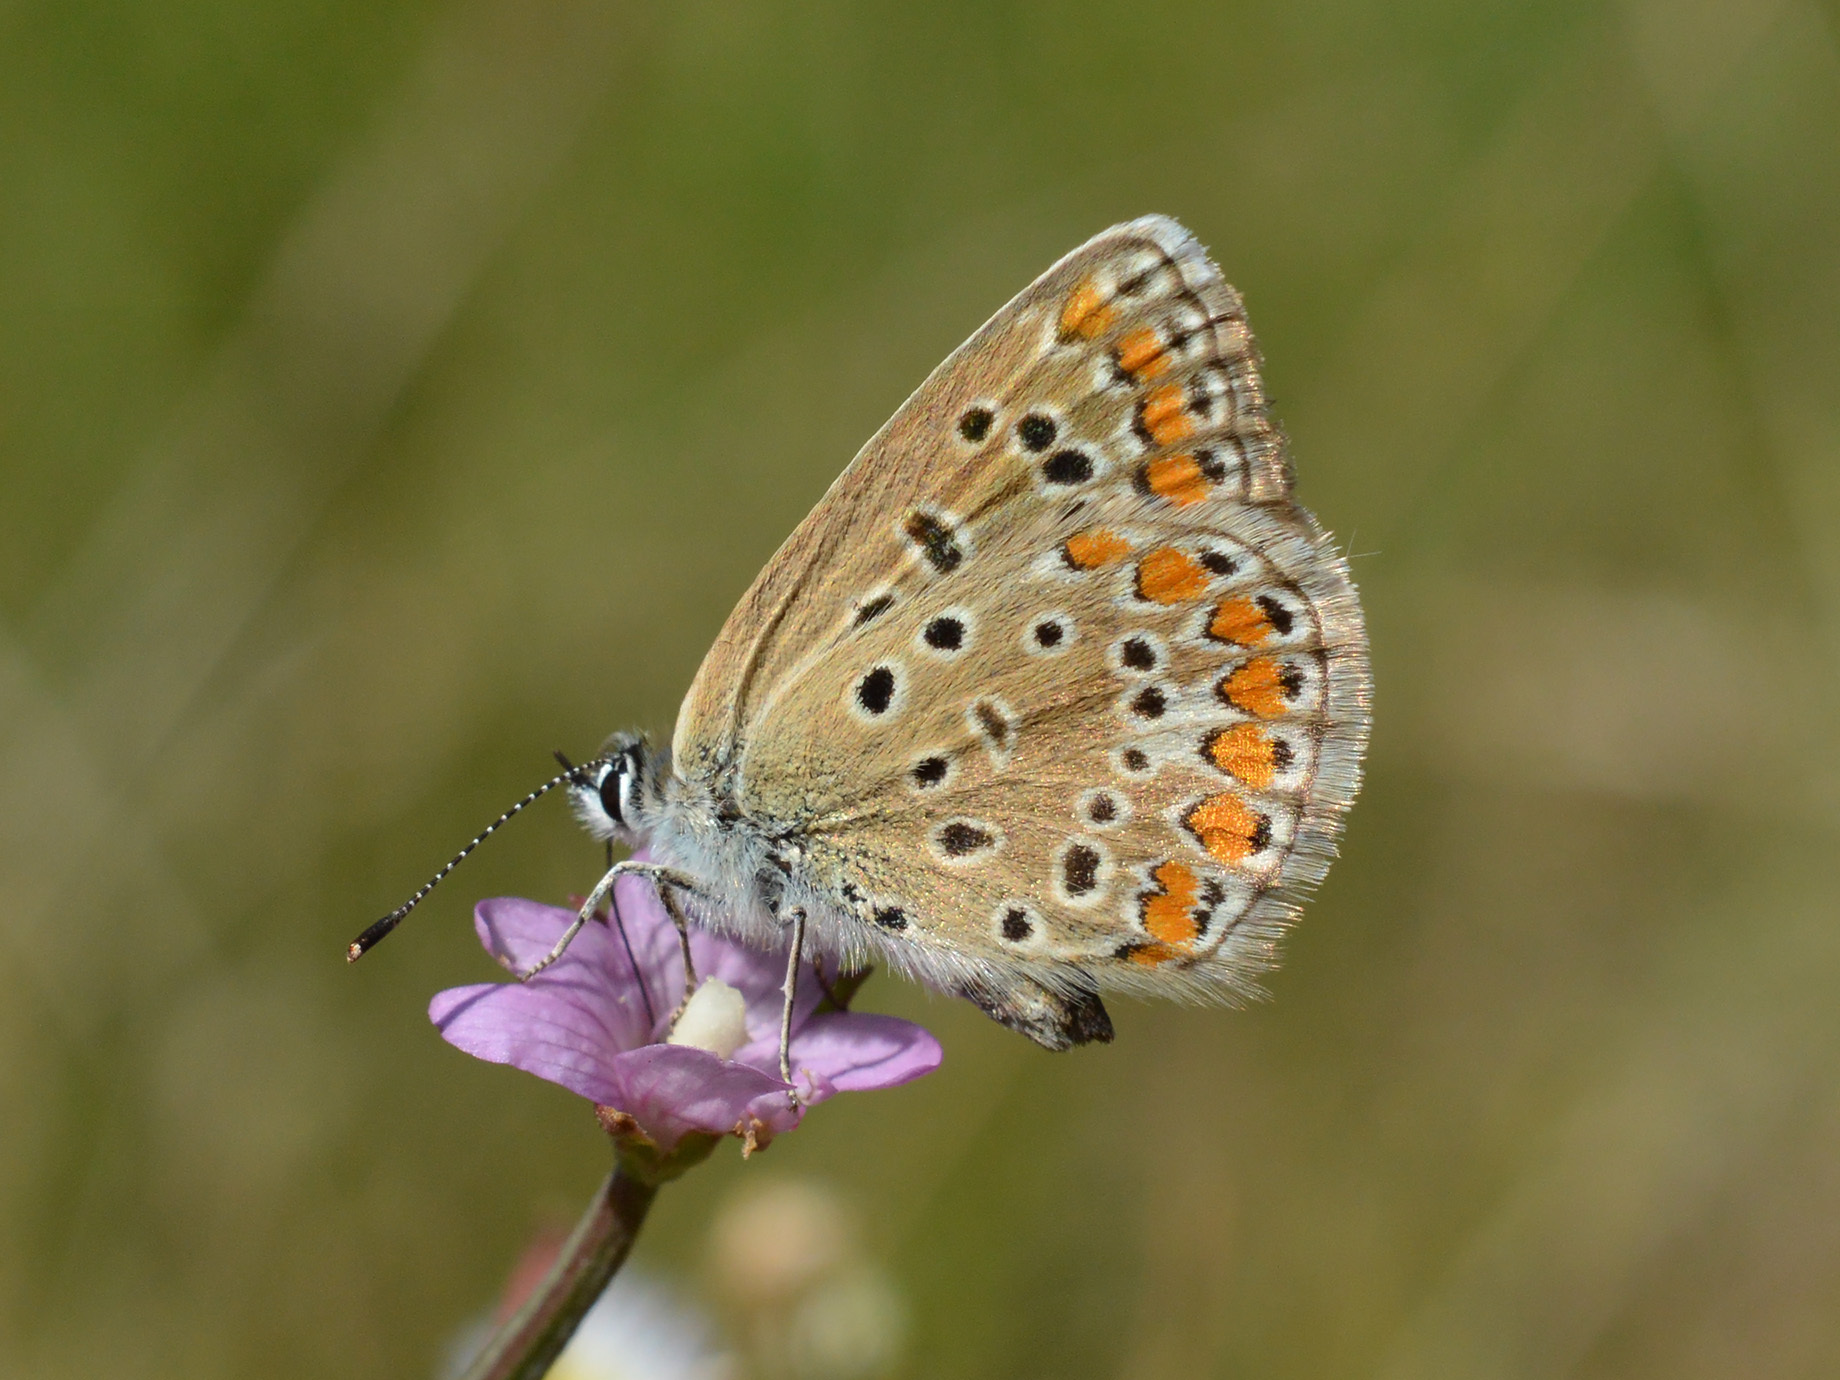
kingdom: Animalia
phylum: Arthropoda
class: Insecta
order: Lepidoptera
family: Lycaenidae
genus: Polyommatus
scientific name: Polyommatus icarus
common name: Common blue
